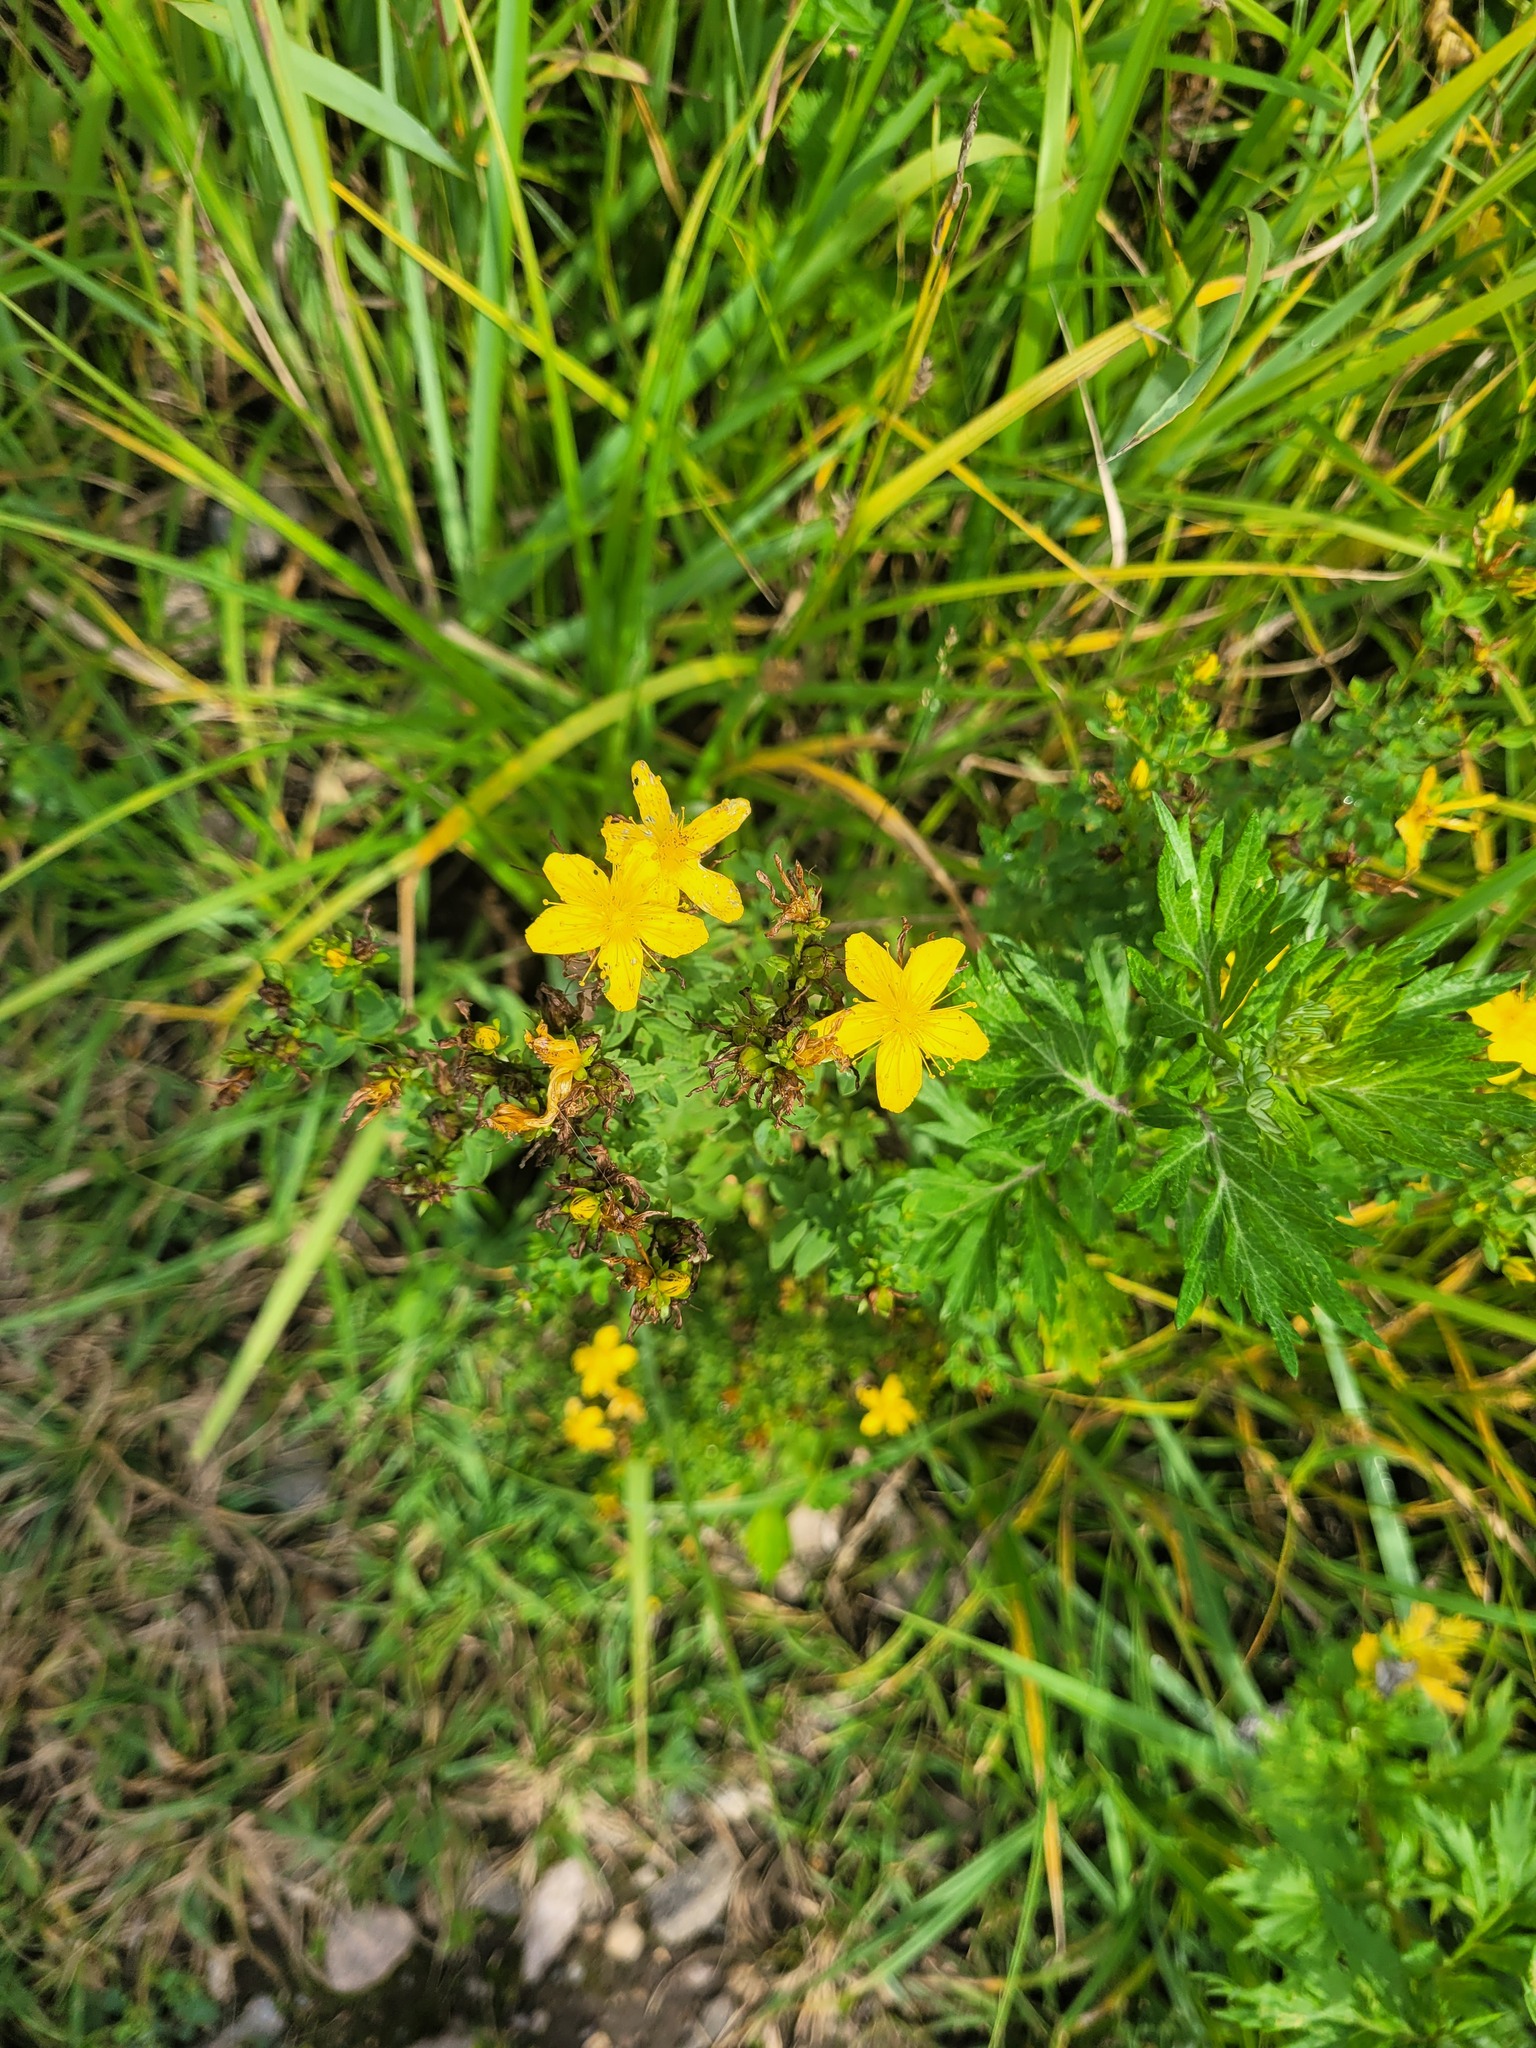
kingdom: Plantae
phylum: Tracheophyta
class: Magnoliopsida
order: Malpighiales
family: Hypericaceae
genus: Hypericum
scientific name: Hypericum perforatum
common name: Common st. johnswort
